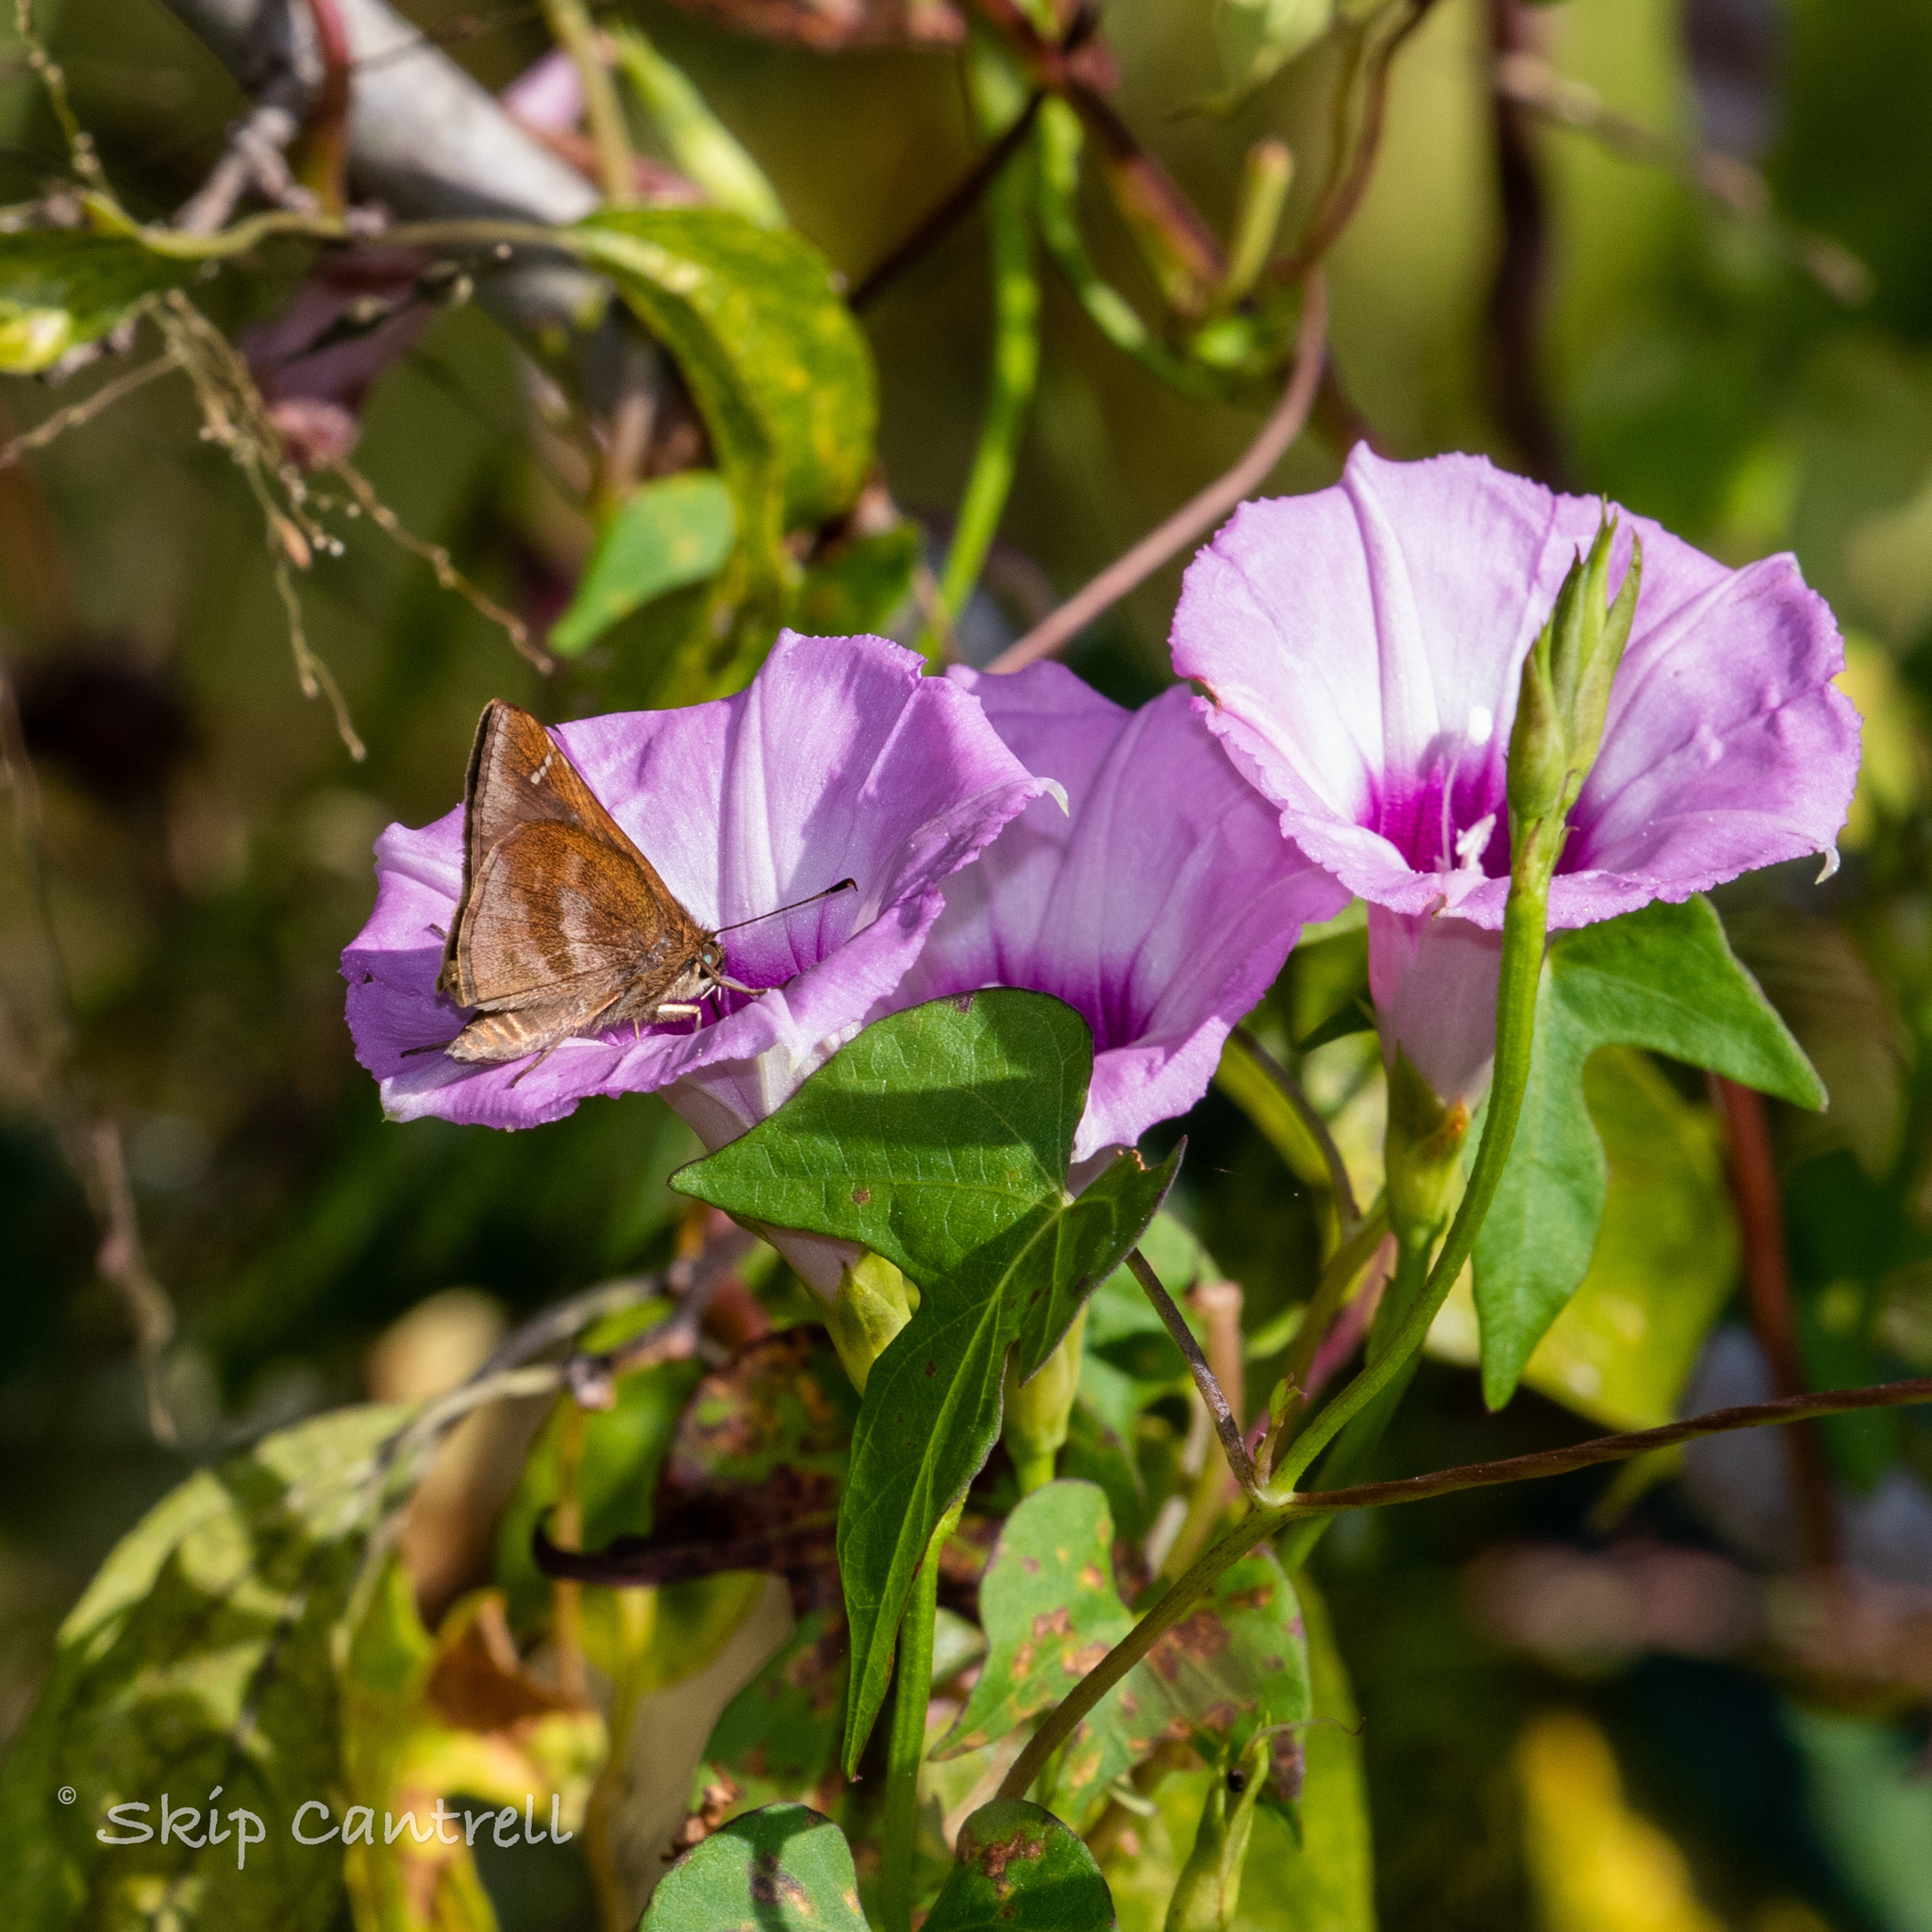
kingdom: Animalia
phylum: Arthropoda
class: Insecta
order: Lepidoptera
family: Hesperiidae
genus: Lerema
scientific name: Lerema accius
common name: Clouded skipper
